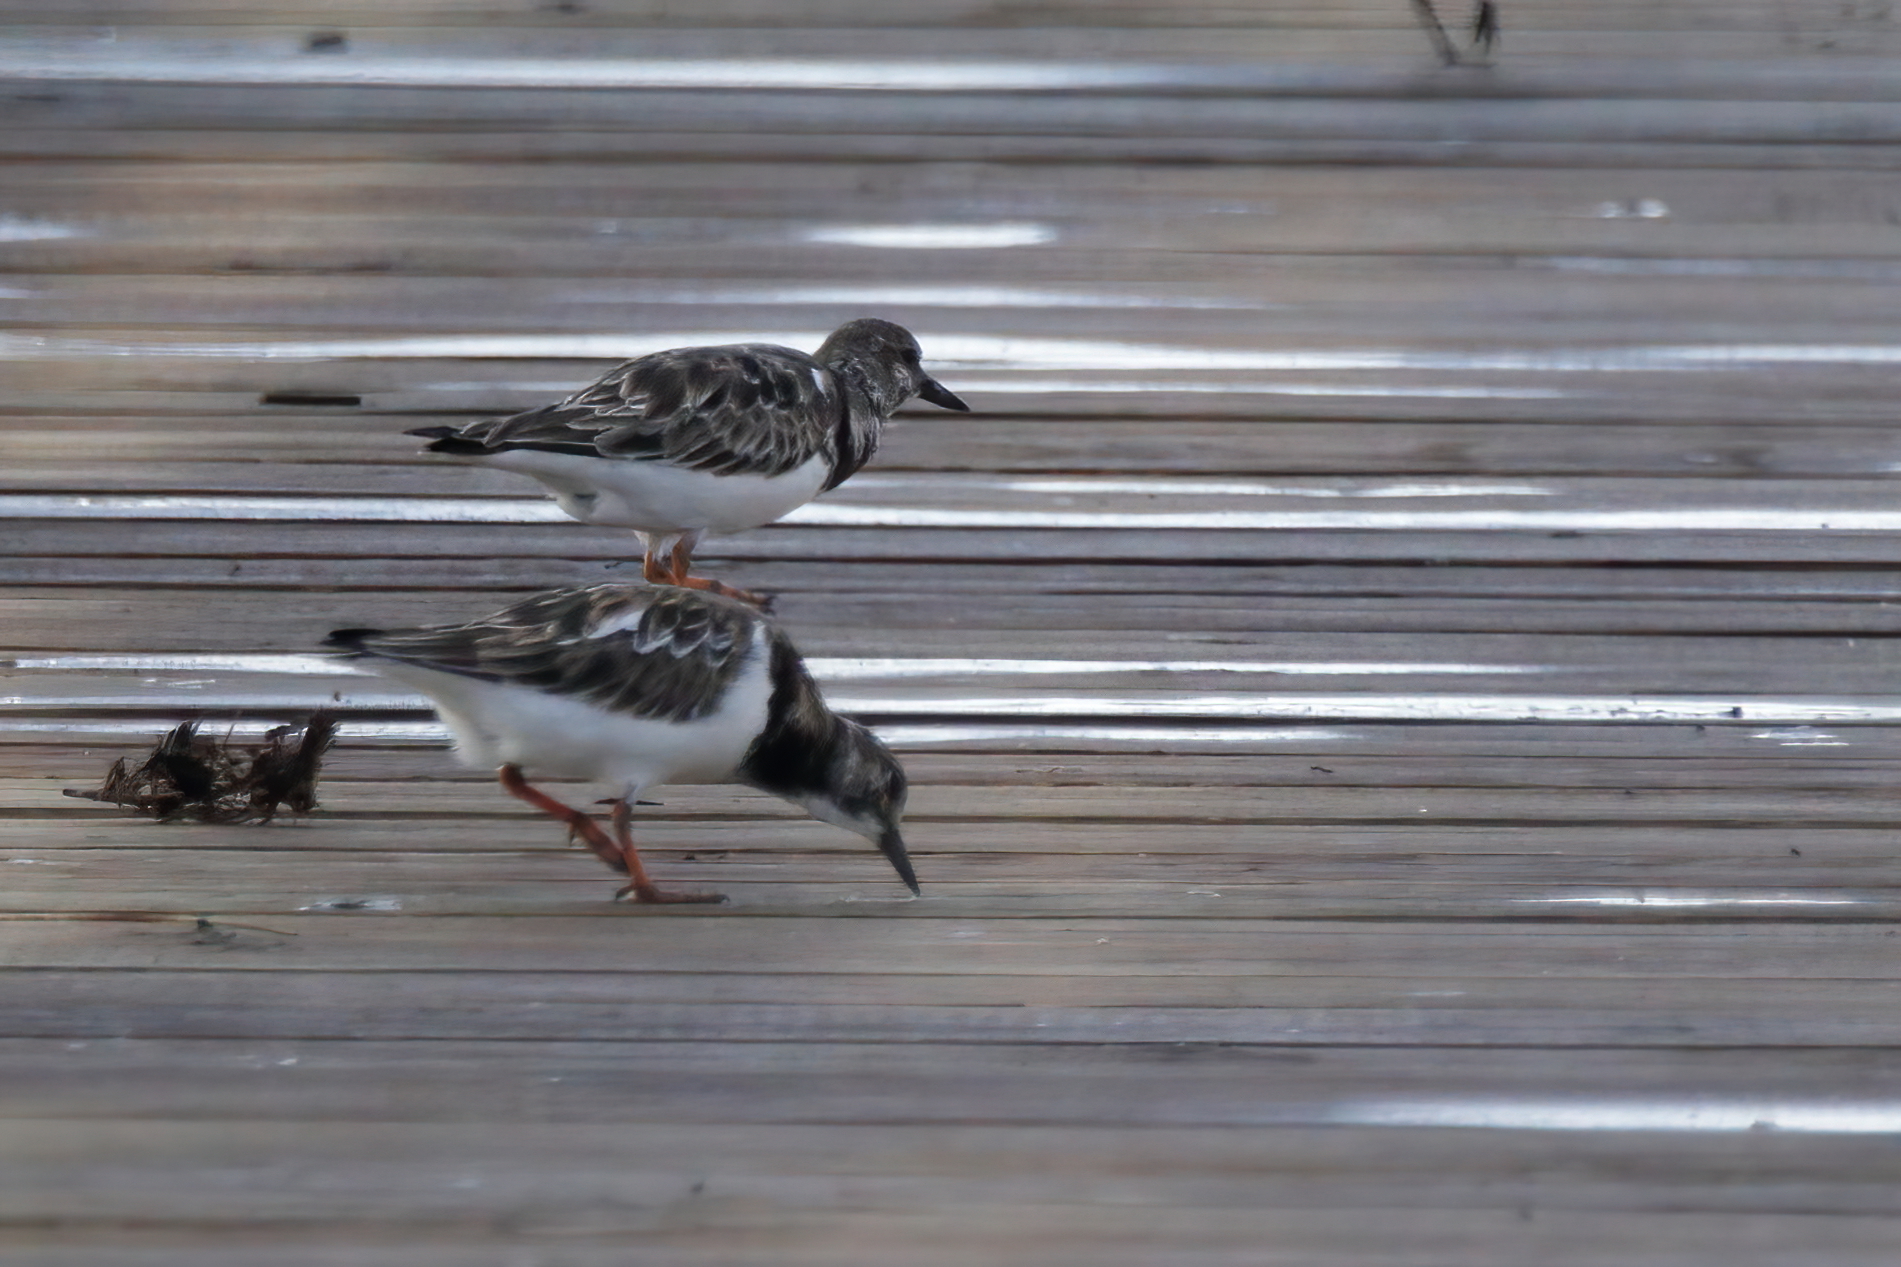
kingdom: Animalia
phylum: Chordata
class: Aves
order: Charadriiformes
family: Scolopacidae
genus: Arenaria
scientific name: Arenaria interpres
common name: Ruddy turnstone
